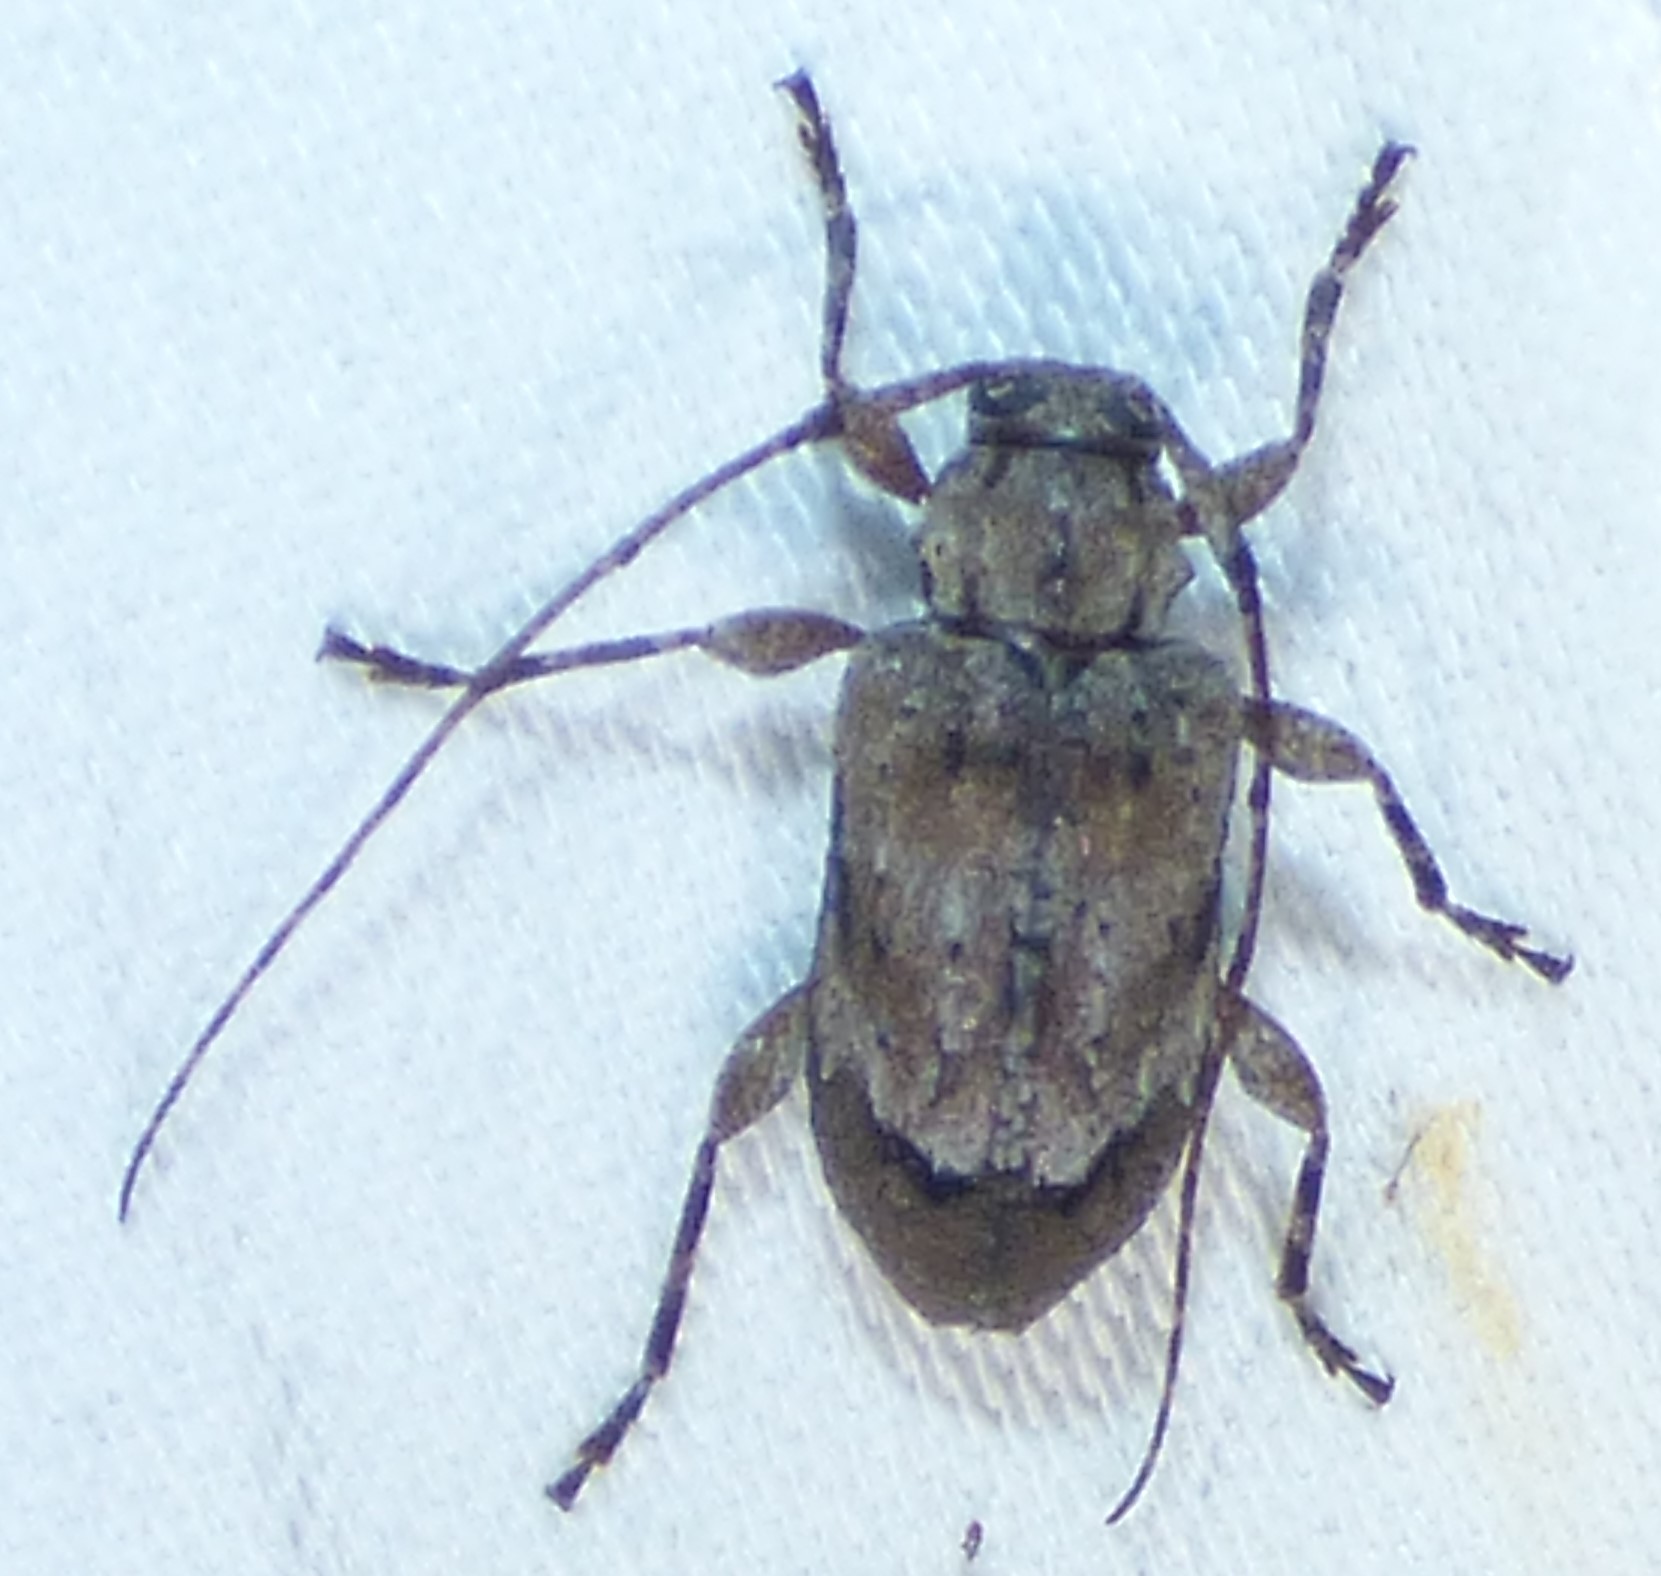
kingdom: Animalia
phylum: Arthropoda
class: Insecta
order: Coleoptera
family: Cerambycidae
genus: Astylopsis
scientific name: Astylopsis arcuata
